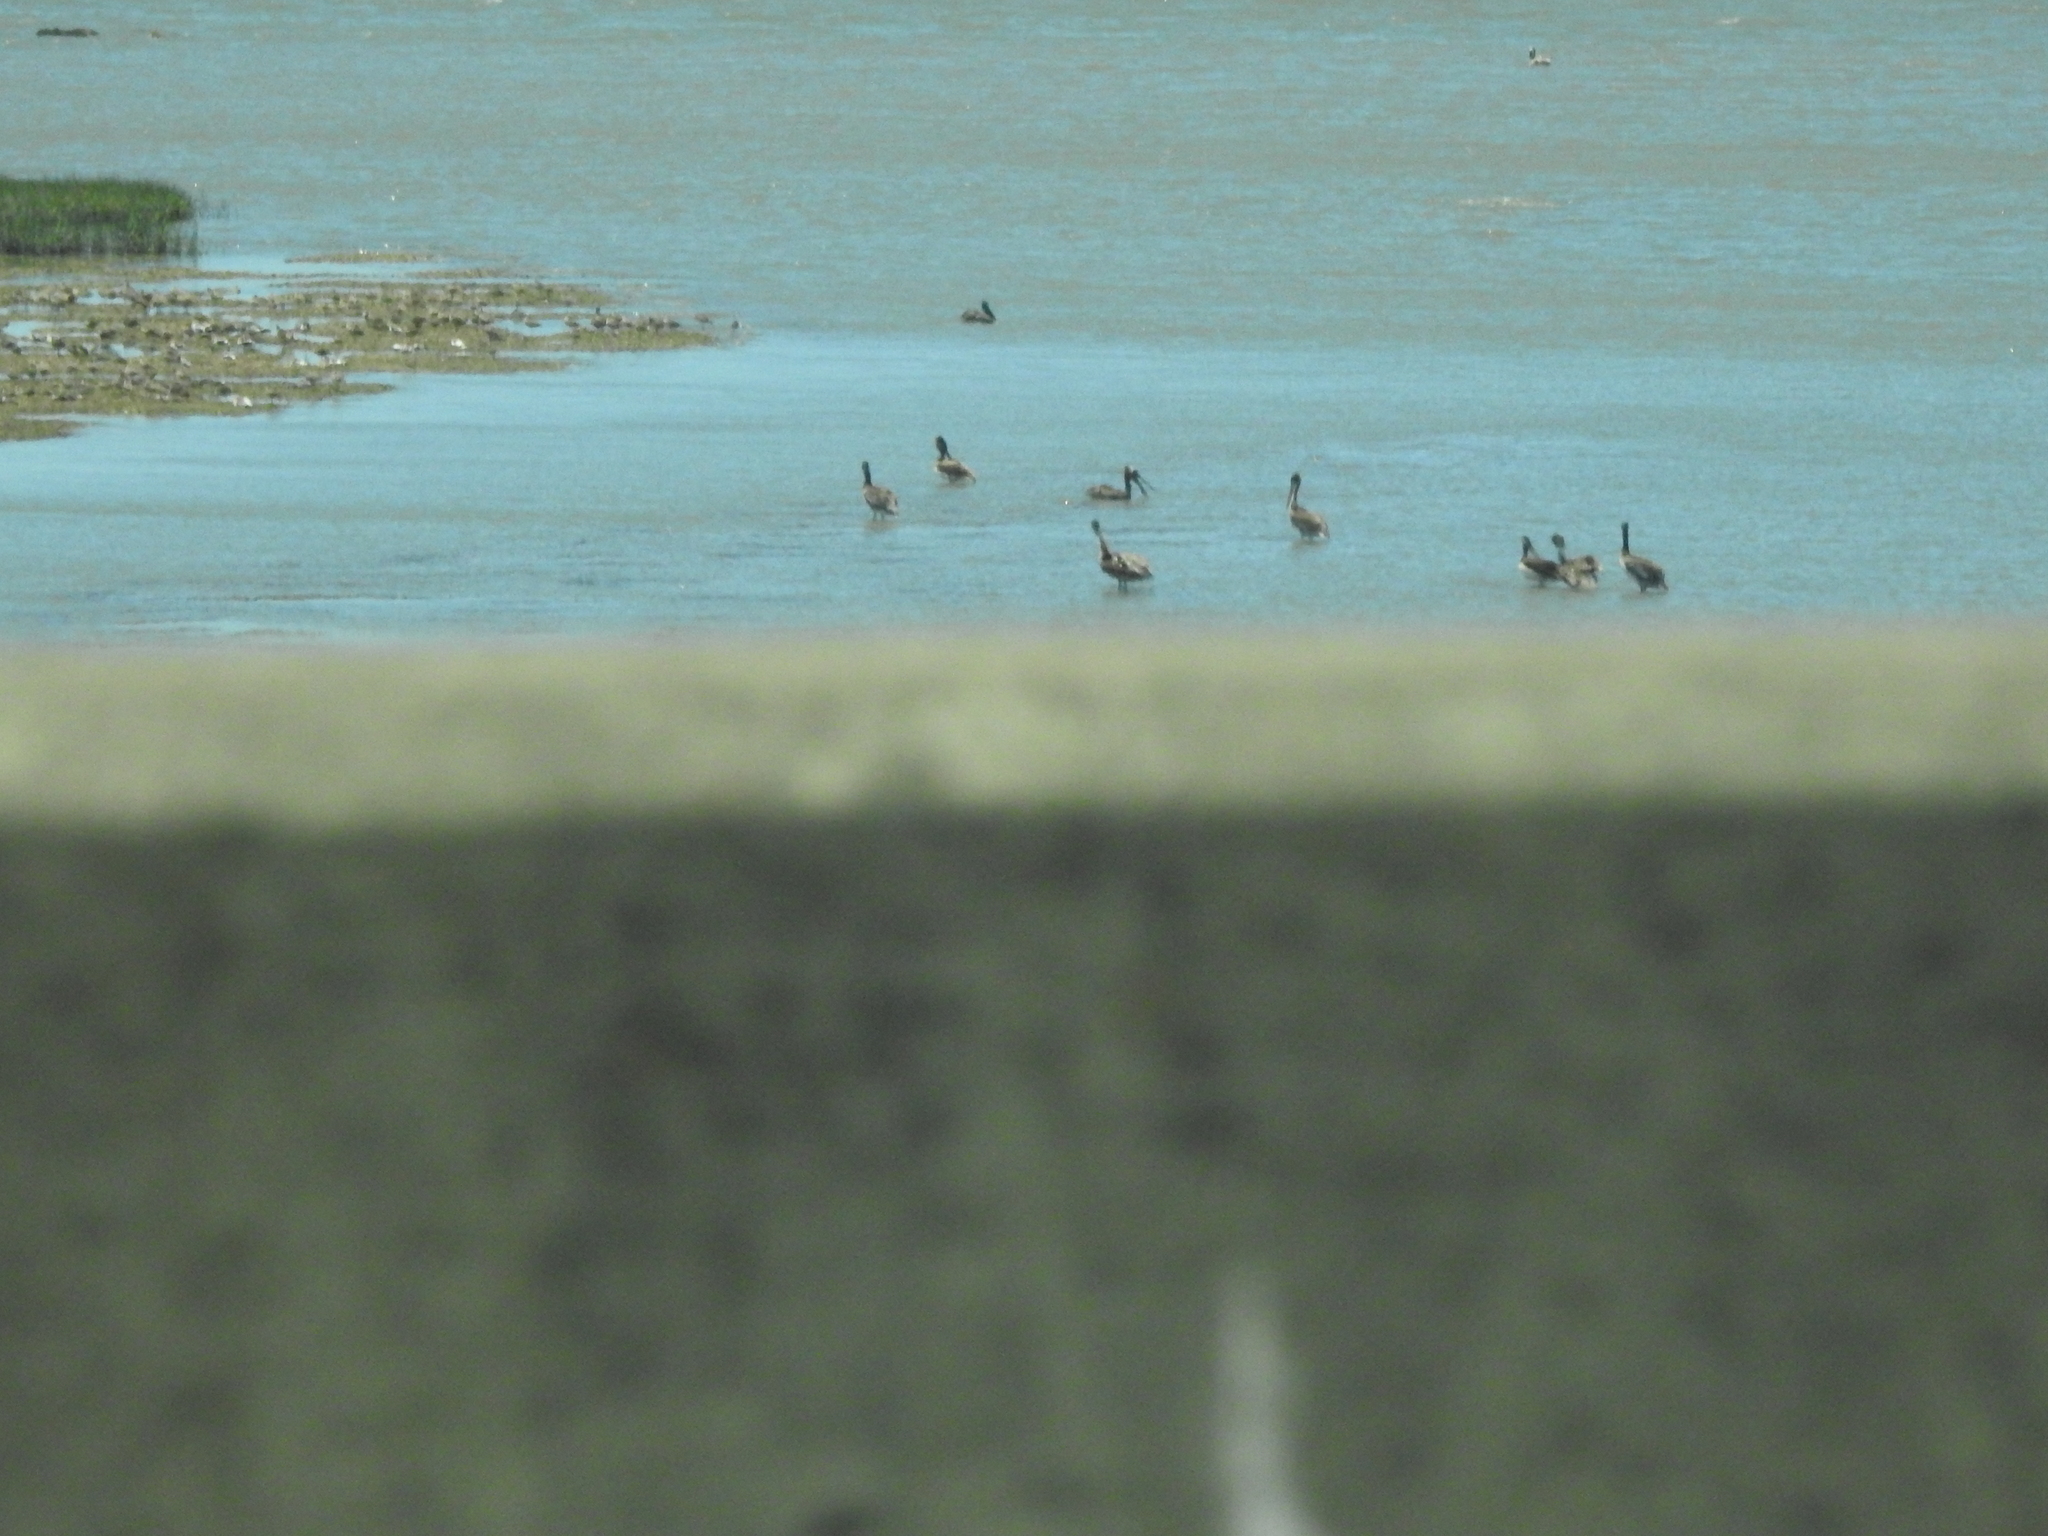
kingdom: Animalia
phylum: Chordata
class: Aves
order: Pelecaniformes
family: Pelecanidae
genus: Pelecanus
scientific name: Pelecanus occidentalis
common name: Brown pelican
